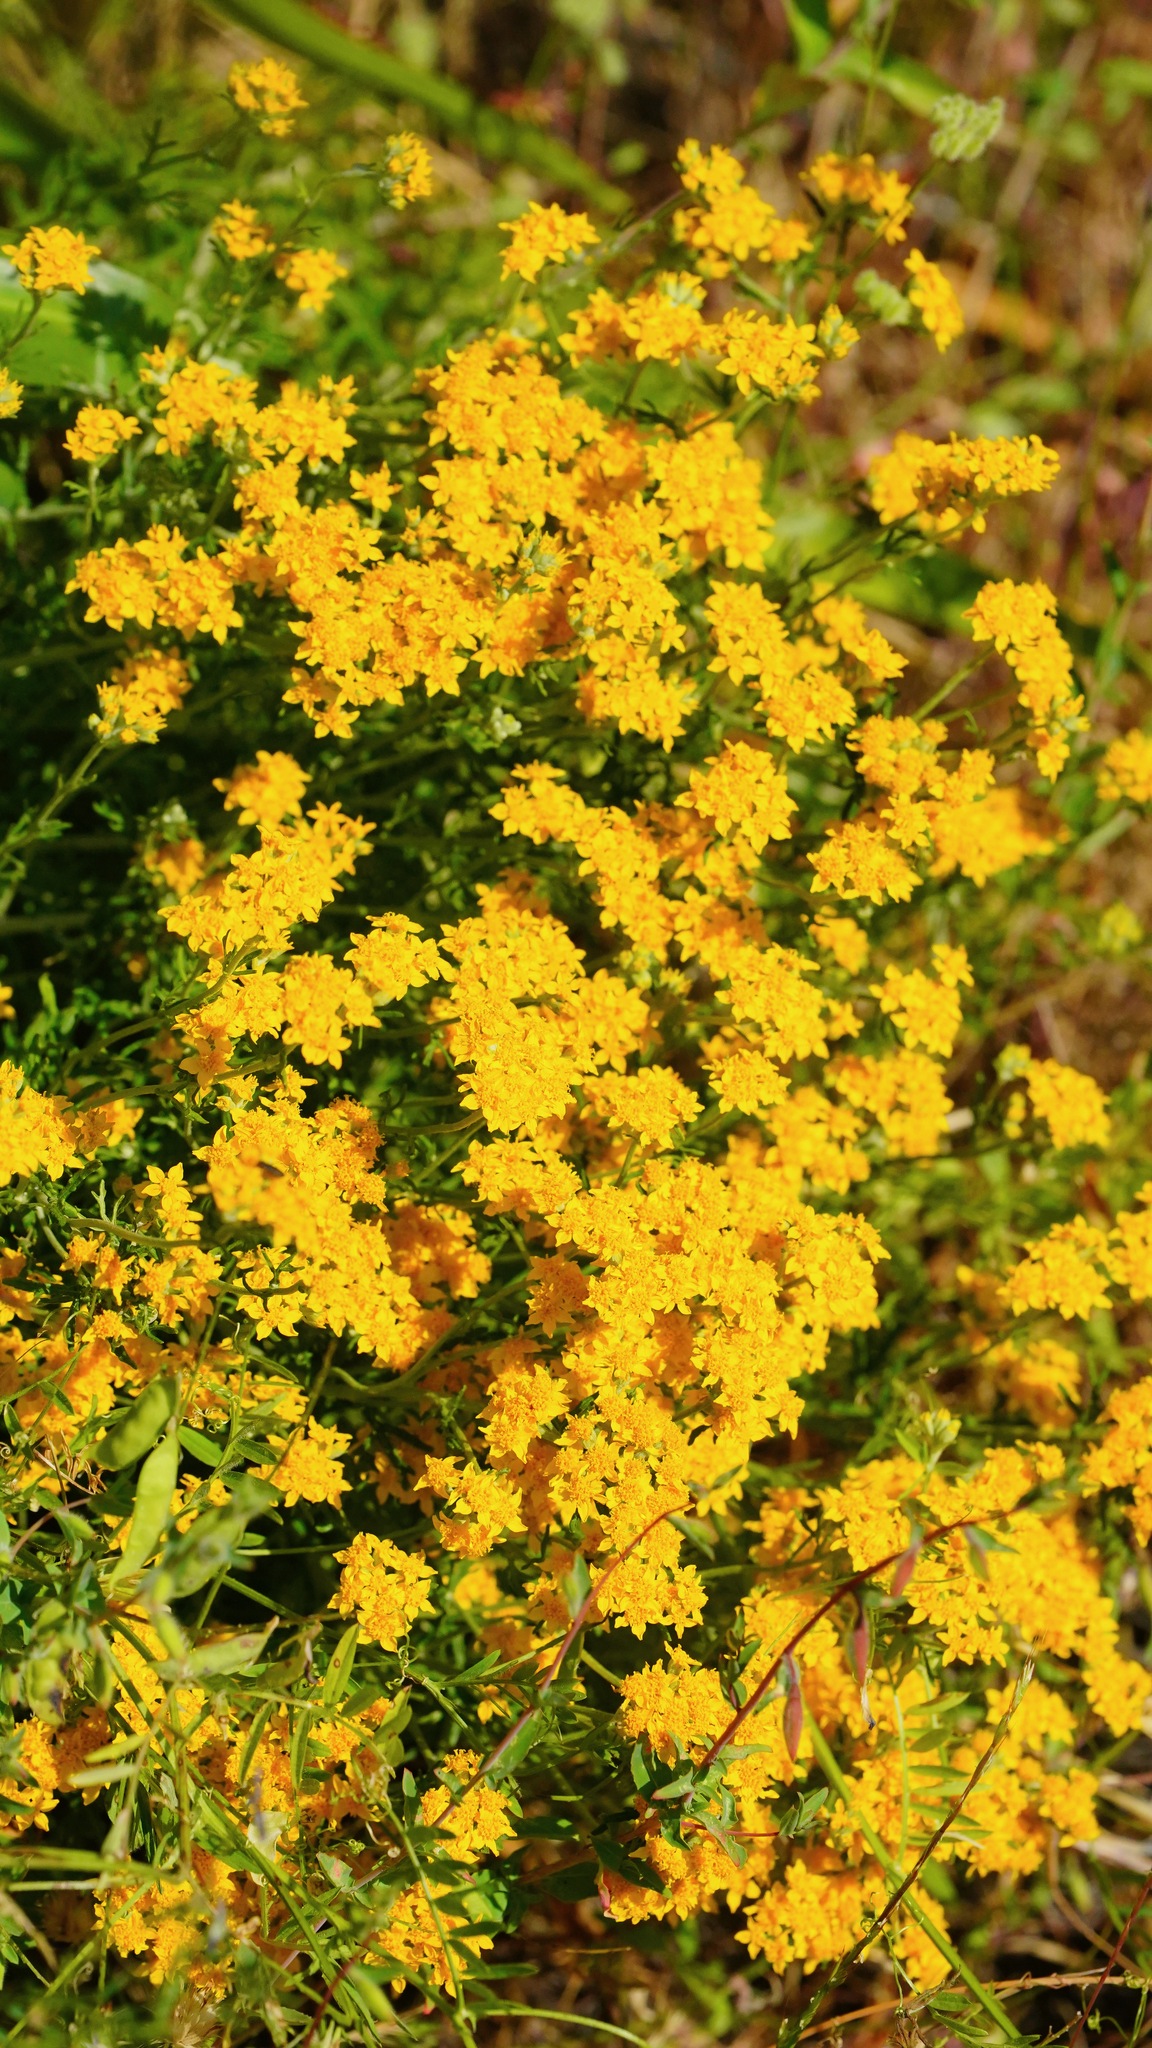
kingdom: Plantae
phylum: Tracheophyta
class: Magnoliopsida
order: Asterales
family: Asteraceae
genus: Eriophyllum
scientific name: Eriophyllum confertiflorum
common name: Golden-yarrow
